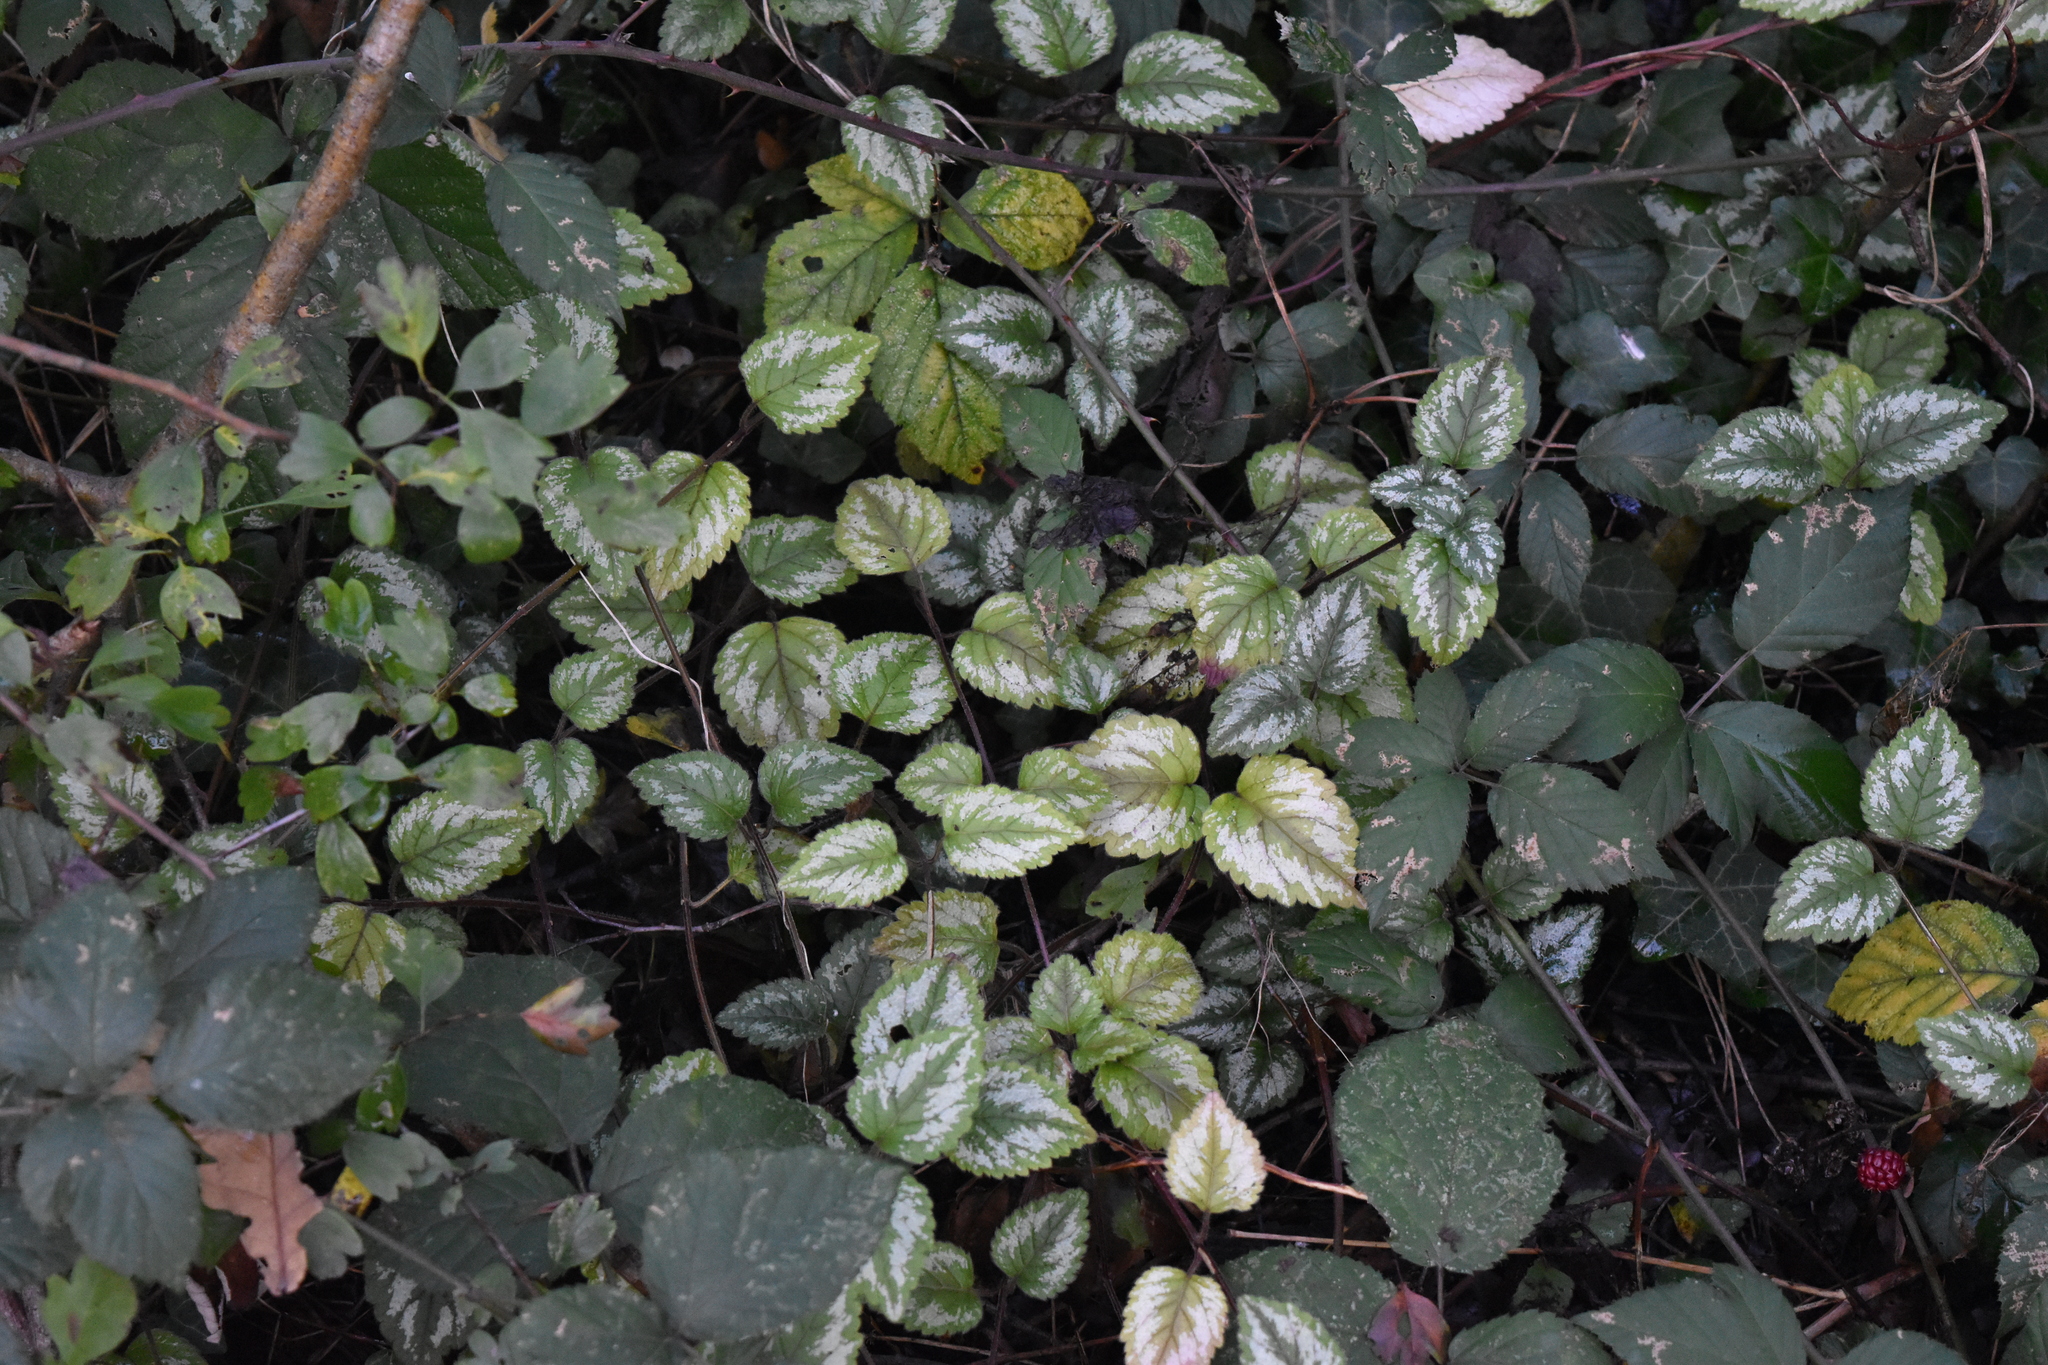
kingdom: Plantae
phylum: Tracheophyta
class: Magnoliopsida
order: Lamiales
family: Lamiaceae
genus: Lamium
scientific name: Lamium galeobdolon
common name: Yellow archangel
